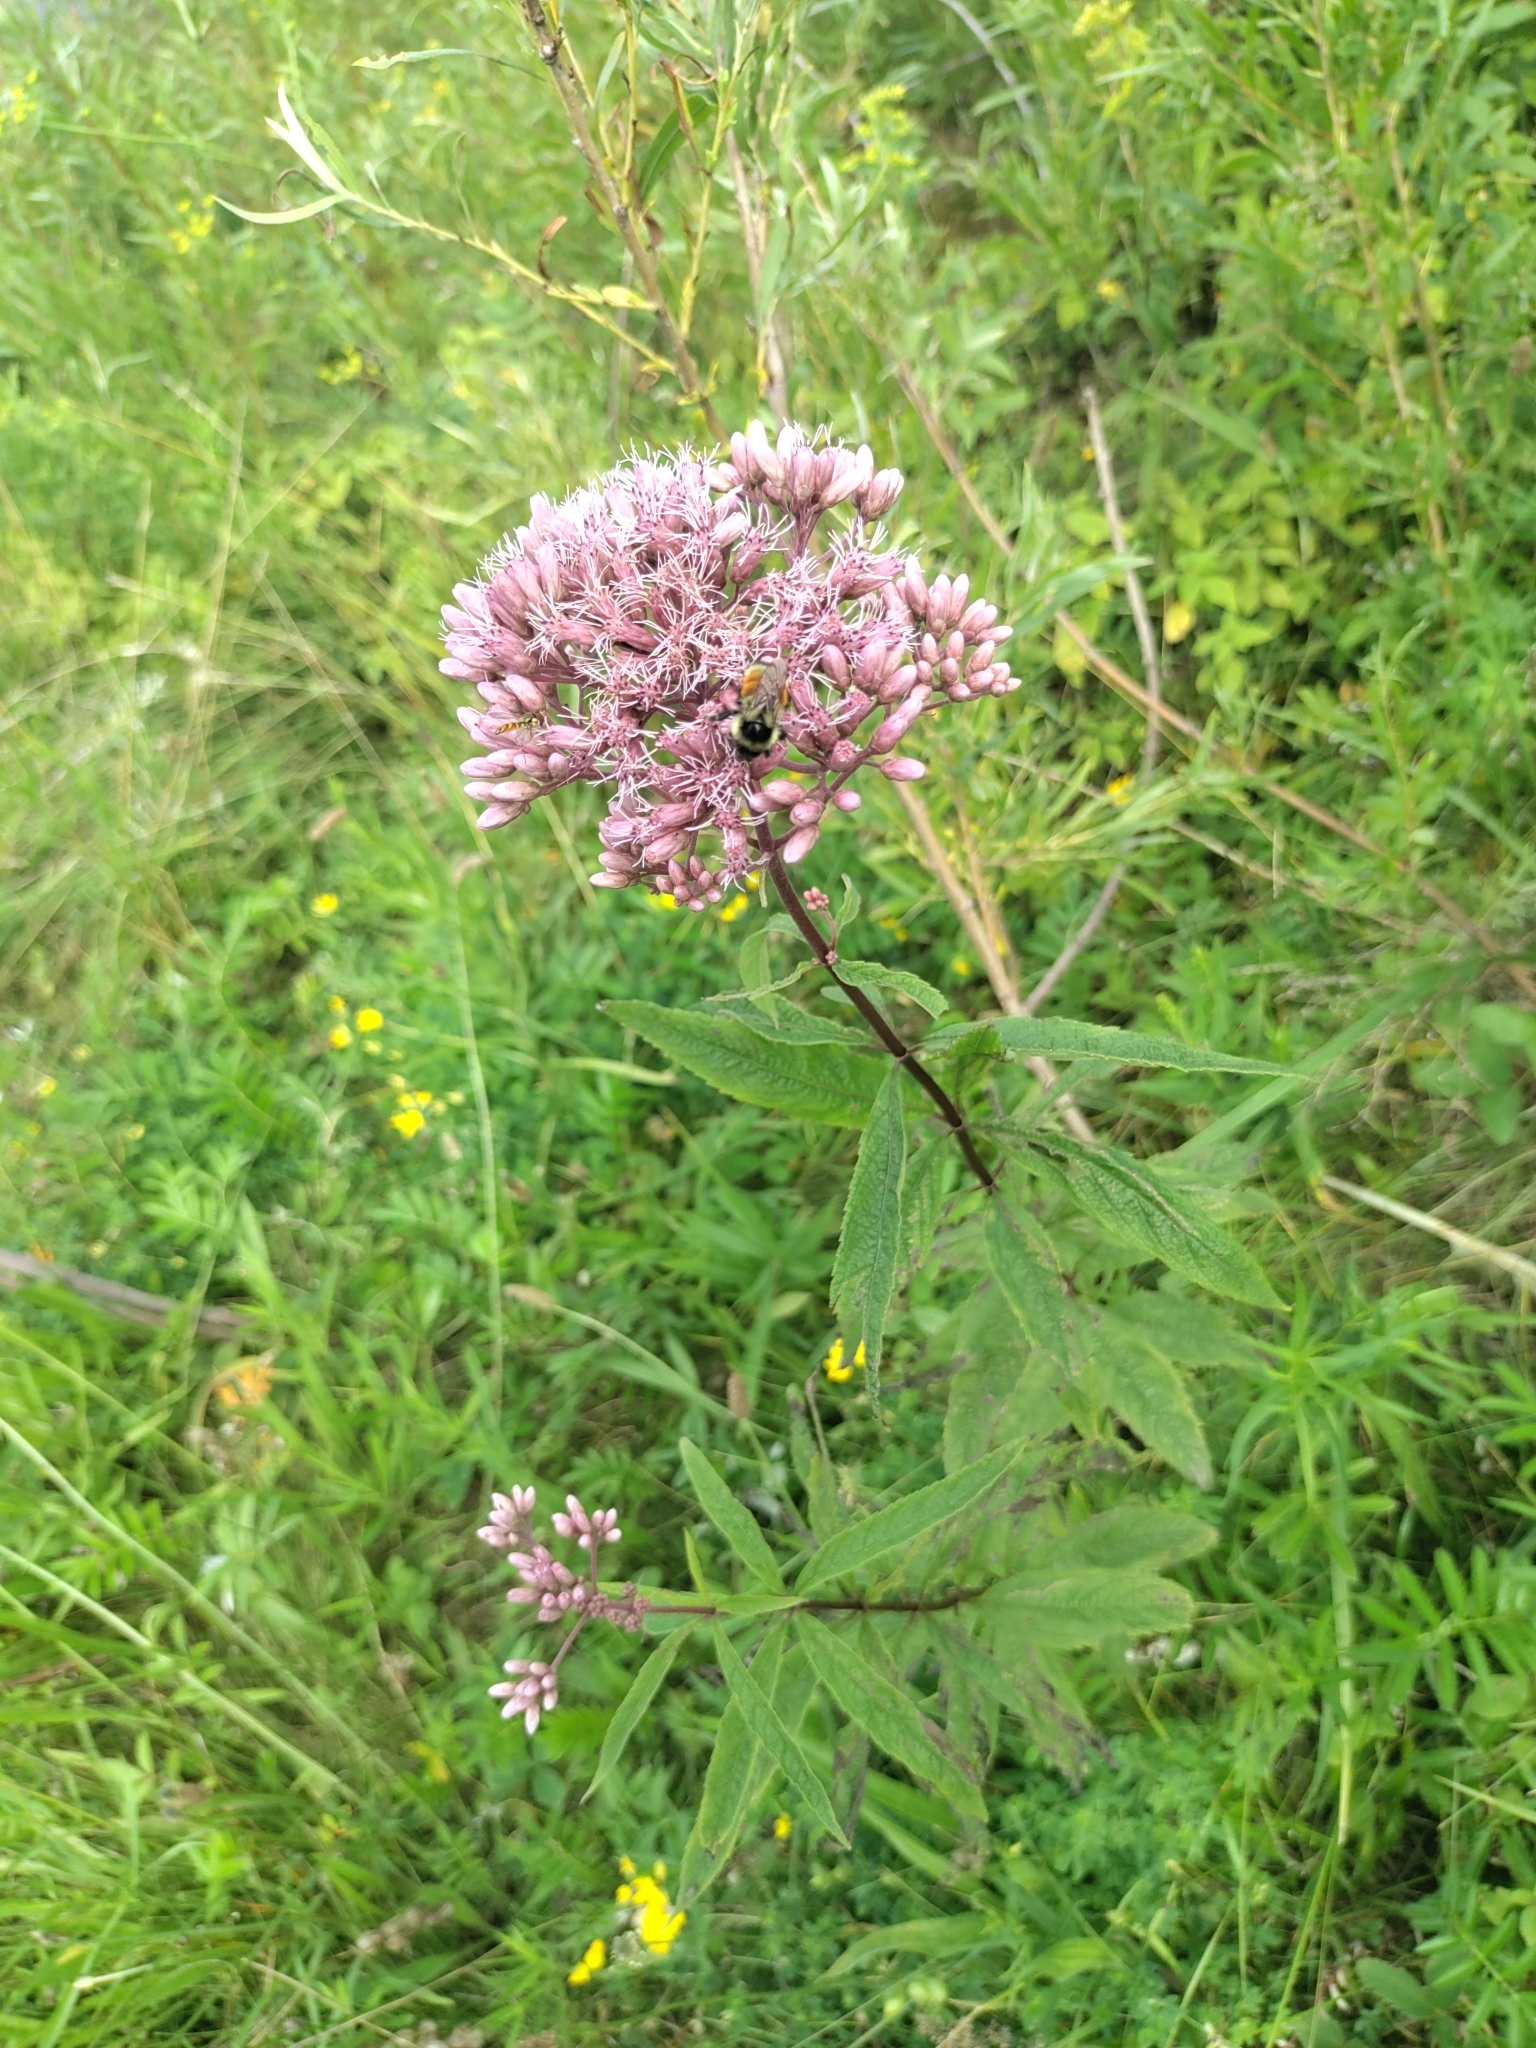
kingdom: Plantae
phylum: Tracheophyta
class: Magnoliopsida
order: Asterales
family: Asteraceae
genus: Eutrochium
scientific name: Eutrochium maculatum
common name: Spotted joe pye weed
